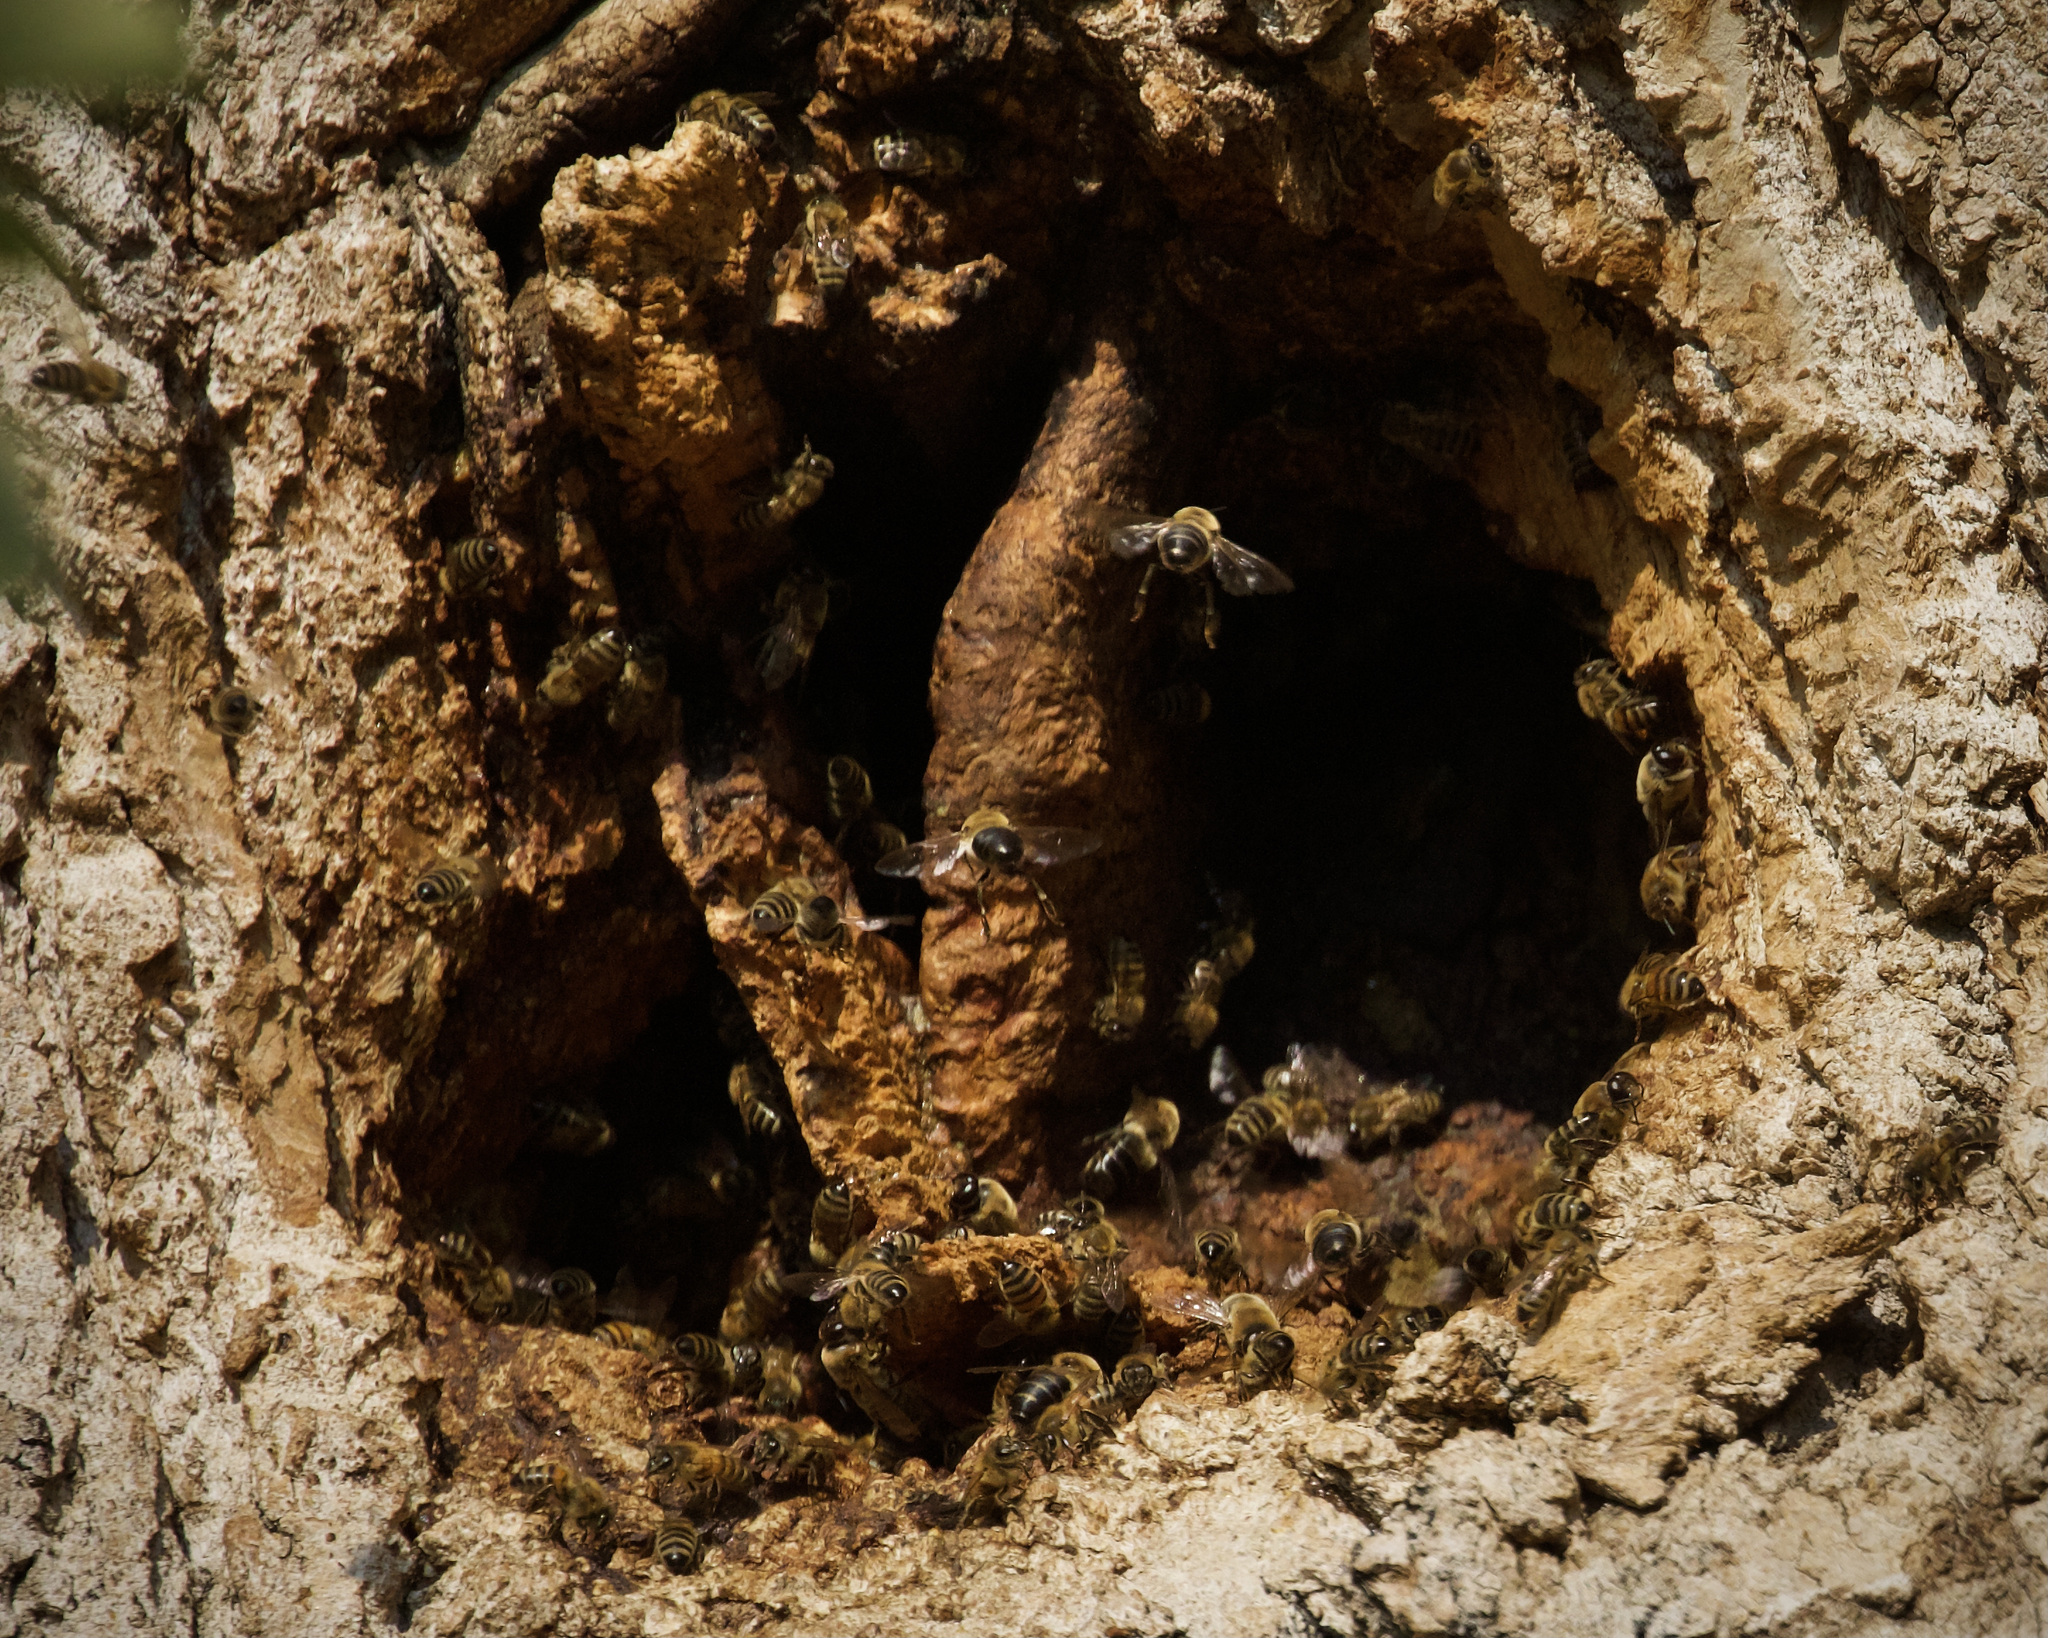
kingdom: Animalia
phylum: Arthropoda
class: Insecta
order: Hymenoptera
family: Apidae
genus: Apis
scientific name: Apis mellifera
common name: Honey bee
